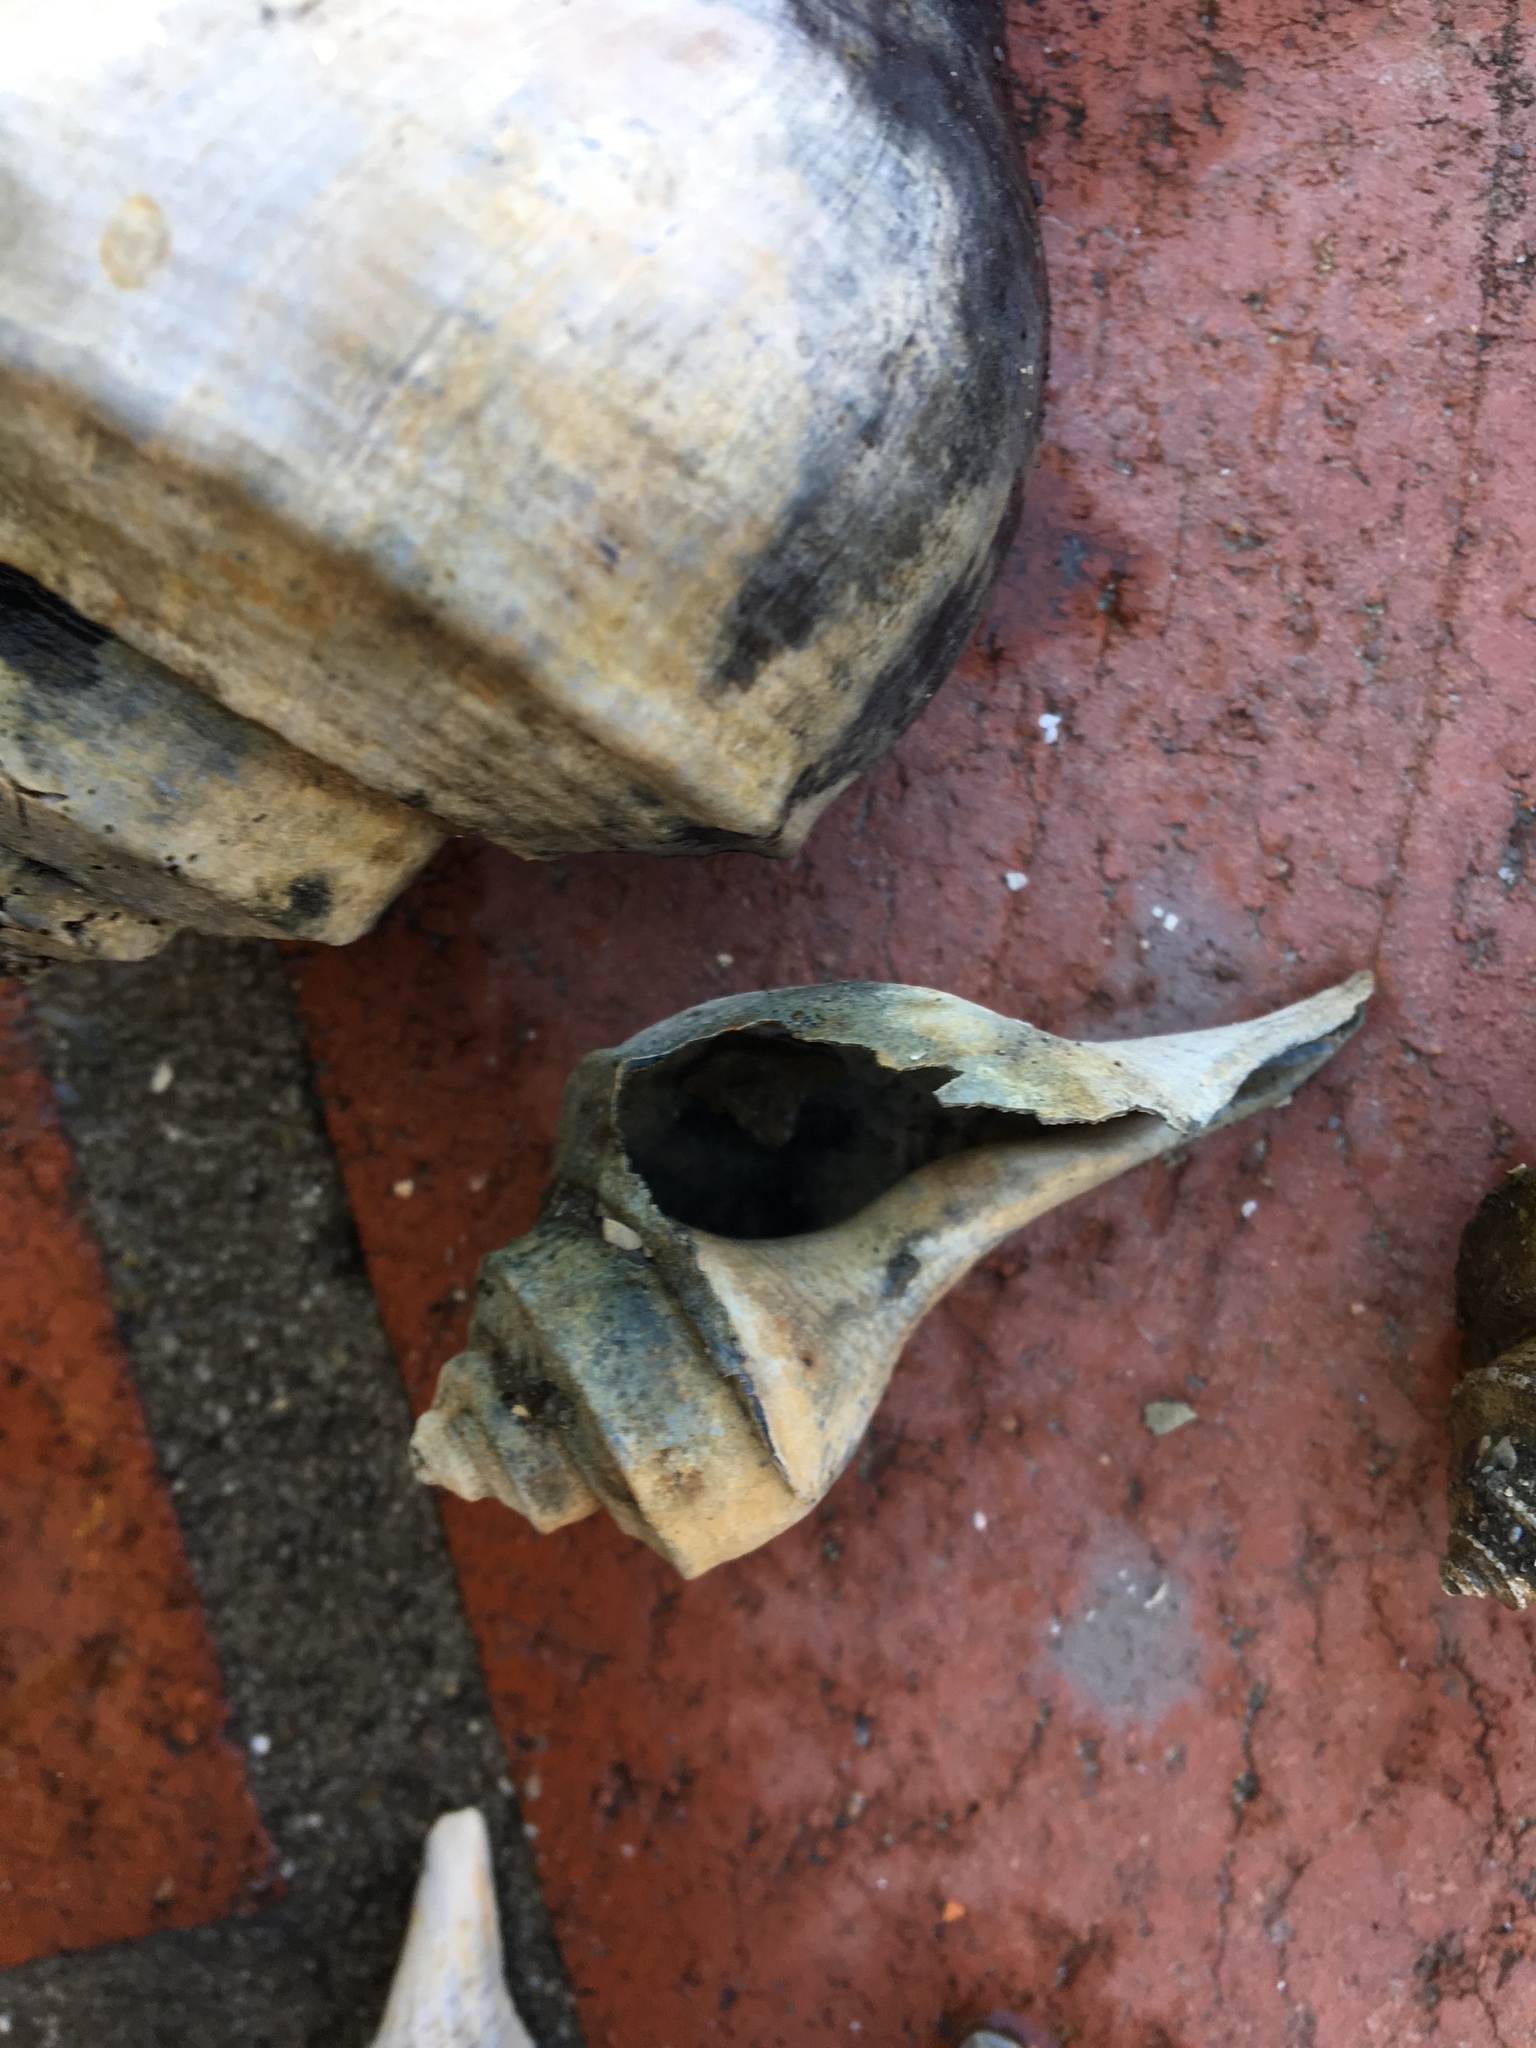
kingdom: Animalia
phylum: Mollusca
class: Gastropoda
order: Neogastropoda
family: Busyconidae
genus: Busycotypus
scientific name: Busycotypus canaliculatus
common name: Channeled whelk
